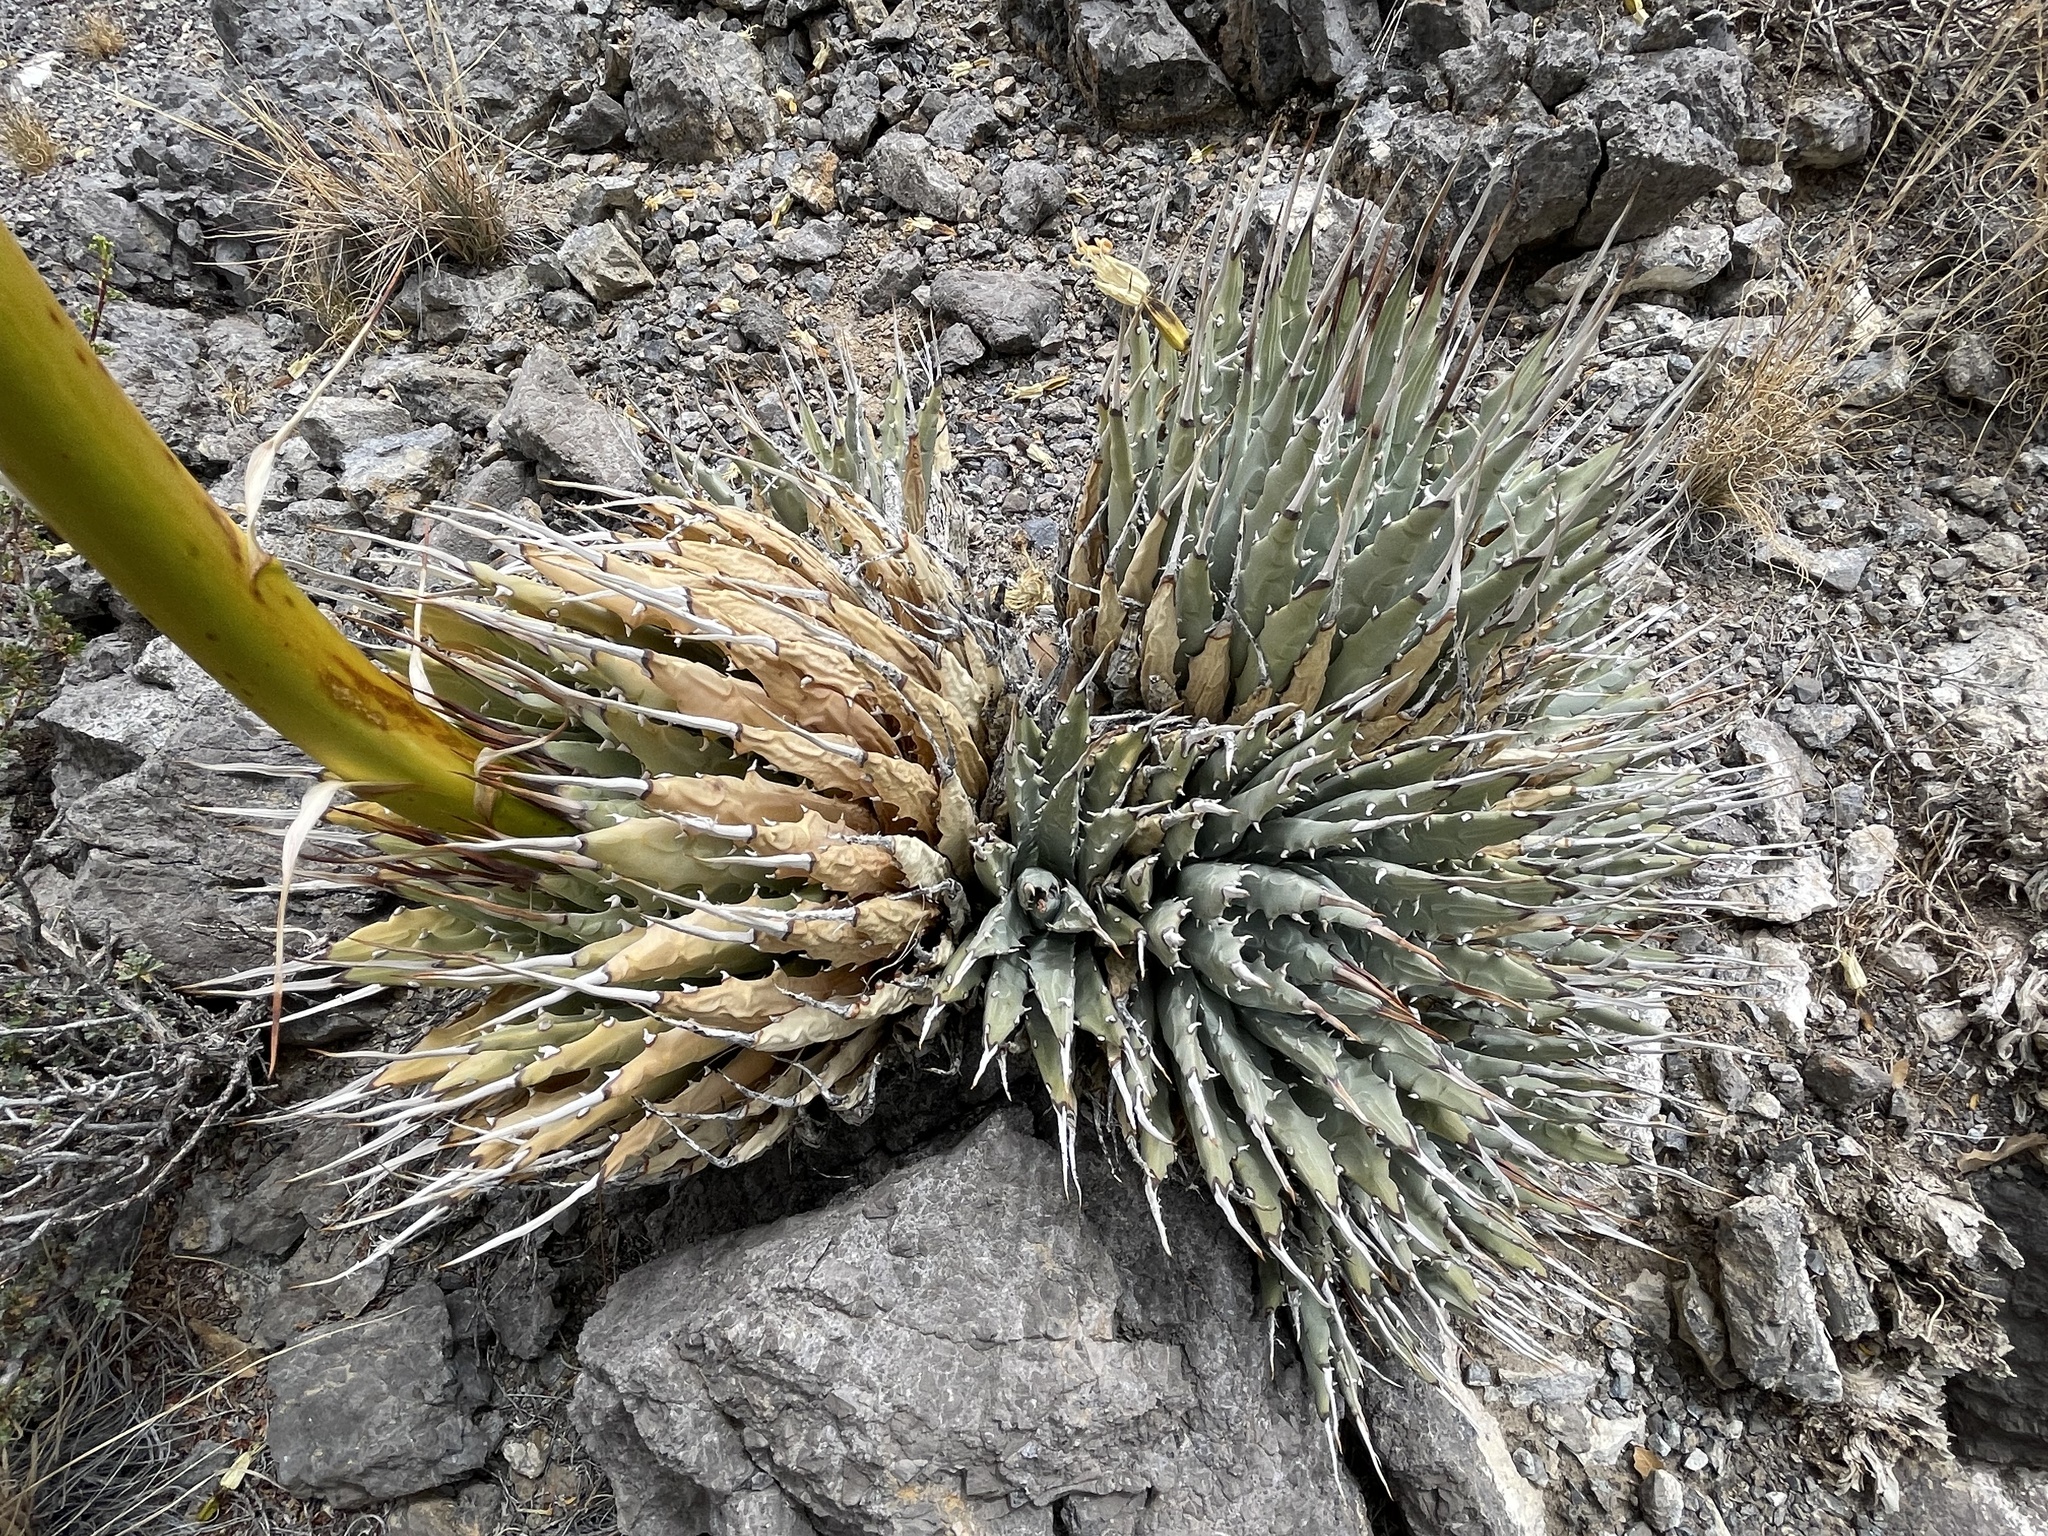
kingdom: Plantae
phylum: Tracheophyta
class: Liliopsida
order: Asparagales
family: Asparagaceae
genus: Agave
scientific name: Agave utahensis
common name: Utah agave
